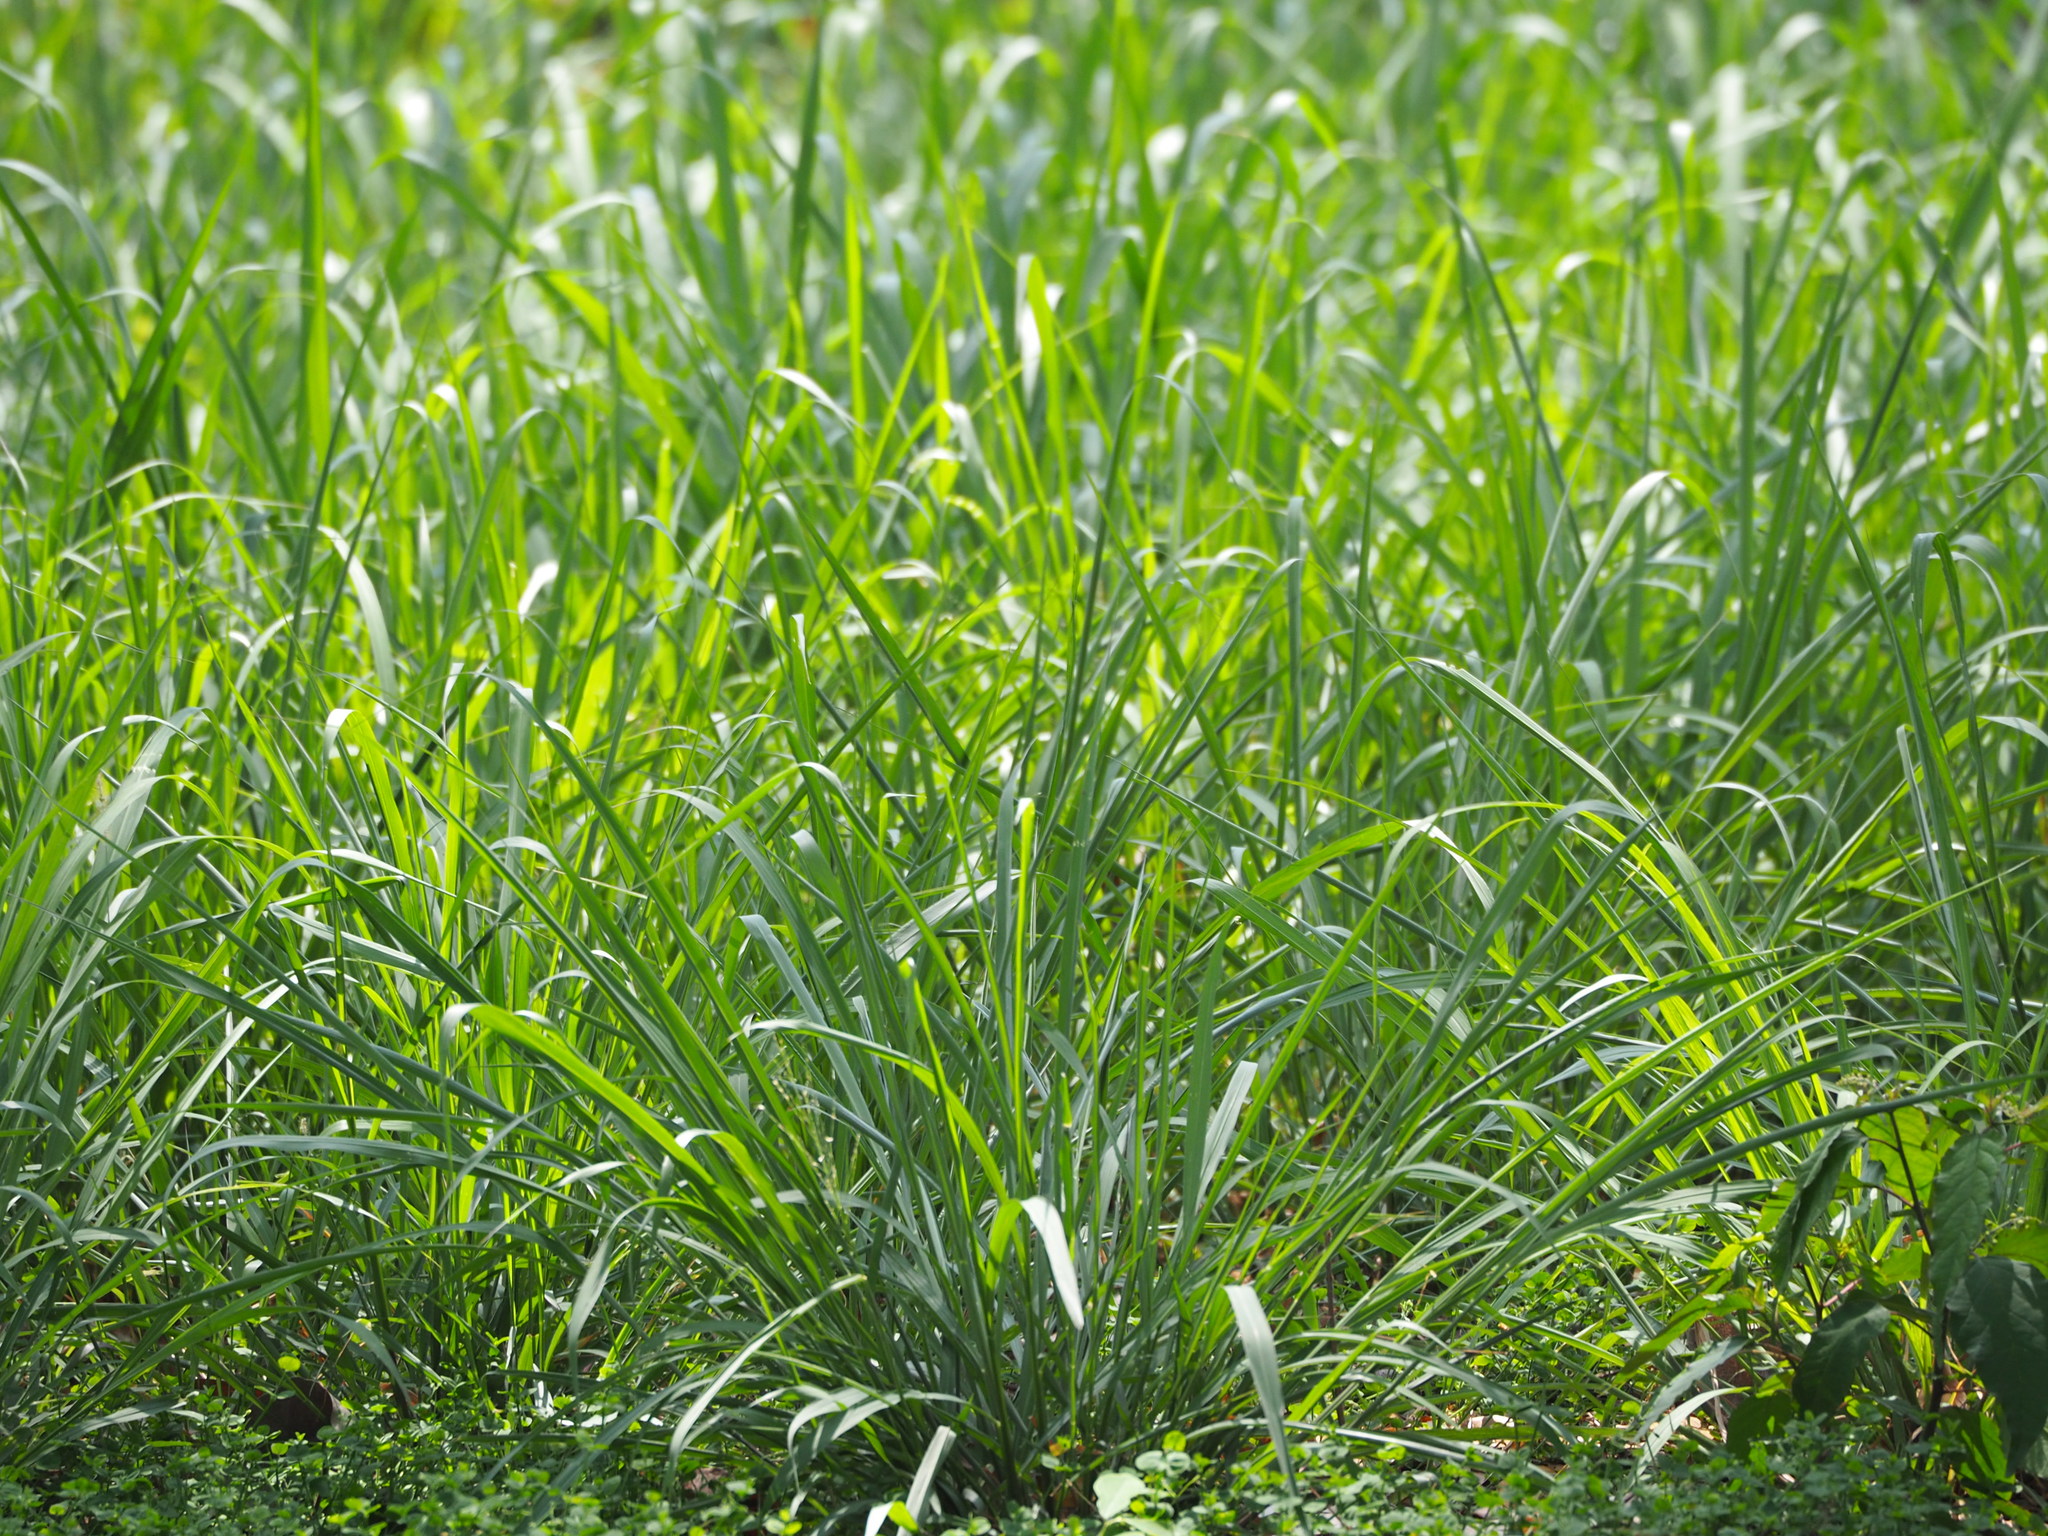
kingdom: Plantae
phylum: Tracheophyta
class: Liliopsida
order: Poales
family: Poaceae
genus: Megathyrsus
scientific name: Megathyrsus maximus
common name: Guineagrass
